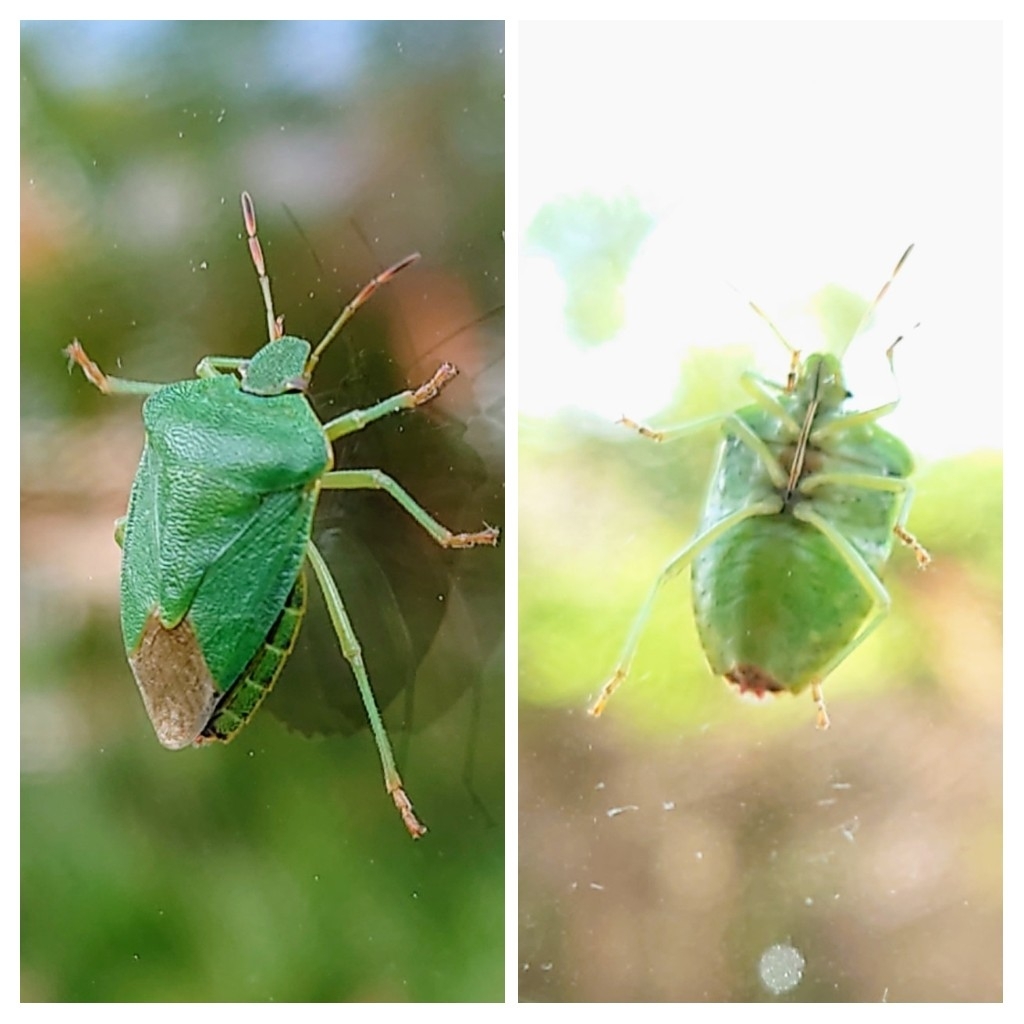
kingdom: Animalia
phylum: Arthropoda
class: Insecta
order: Hemiptera
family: Pentatomidae
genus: Palomena
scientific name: Palomena prasina
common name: Green shieldbug
